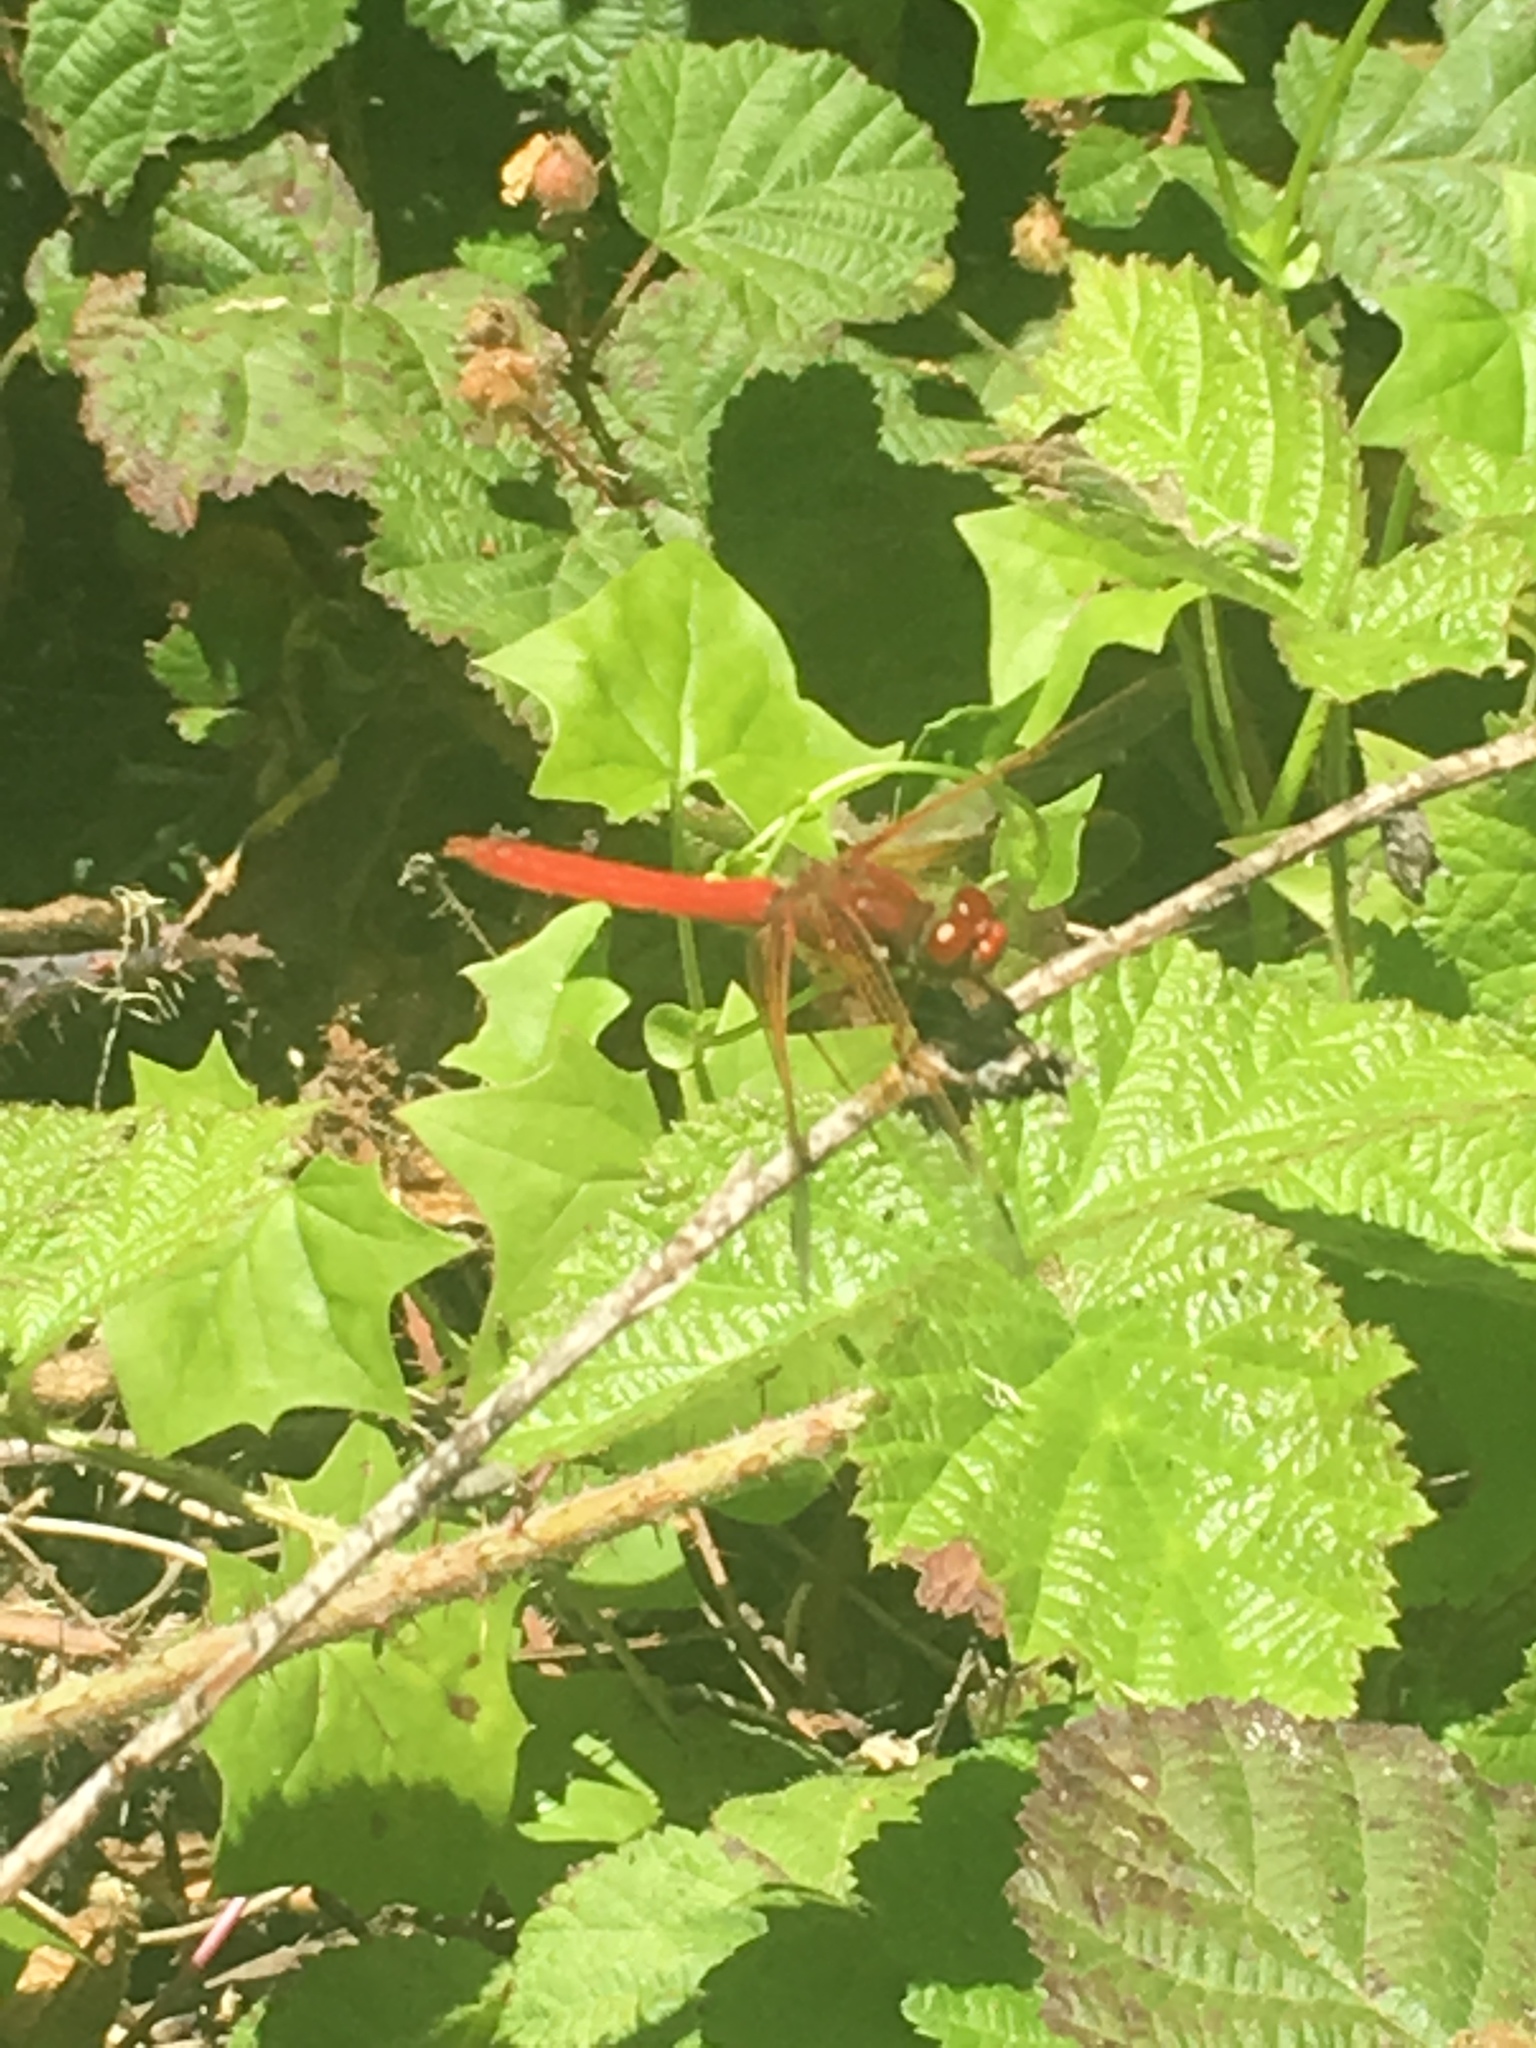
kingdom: Animalia
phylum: Arthropoda
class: Insecta
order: Odonata
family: Libellulidae
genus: Sympetrum
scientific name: Sympetrum illotum
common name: Cardinal meadowhawk
